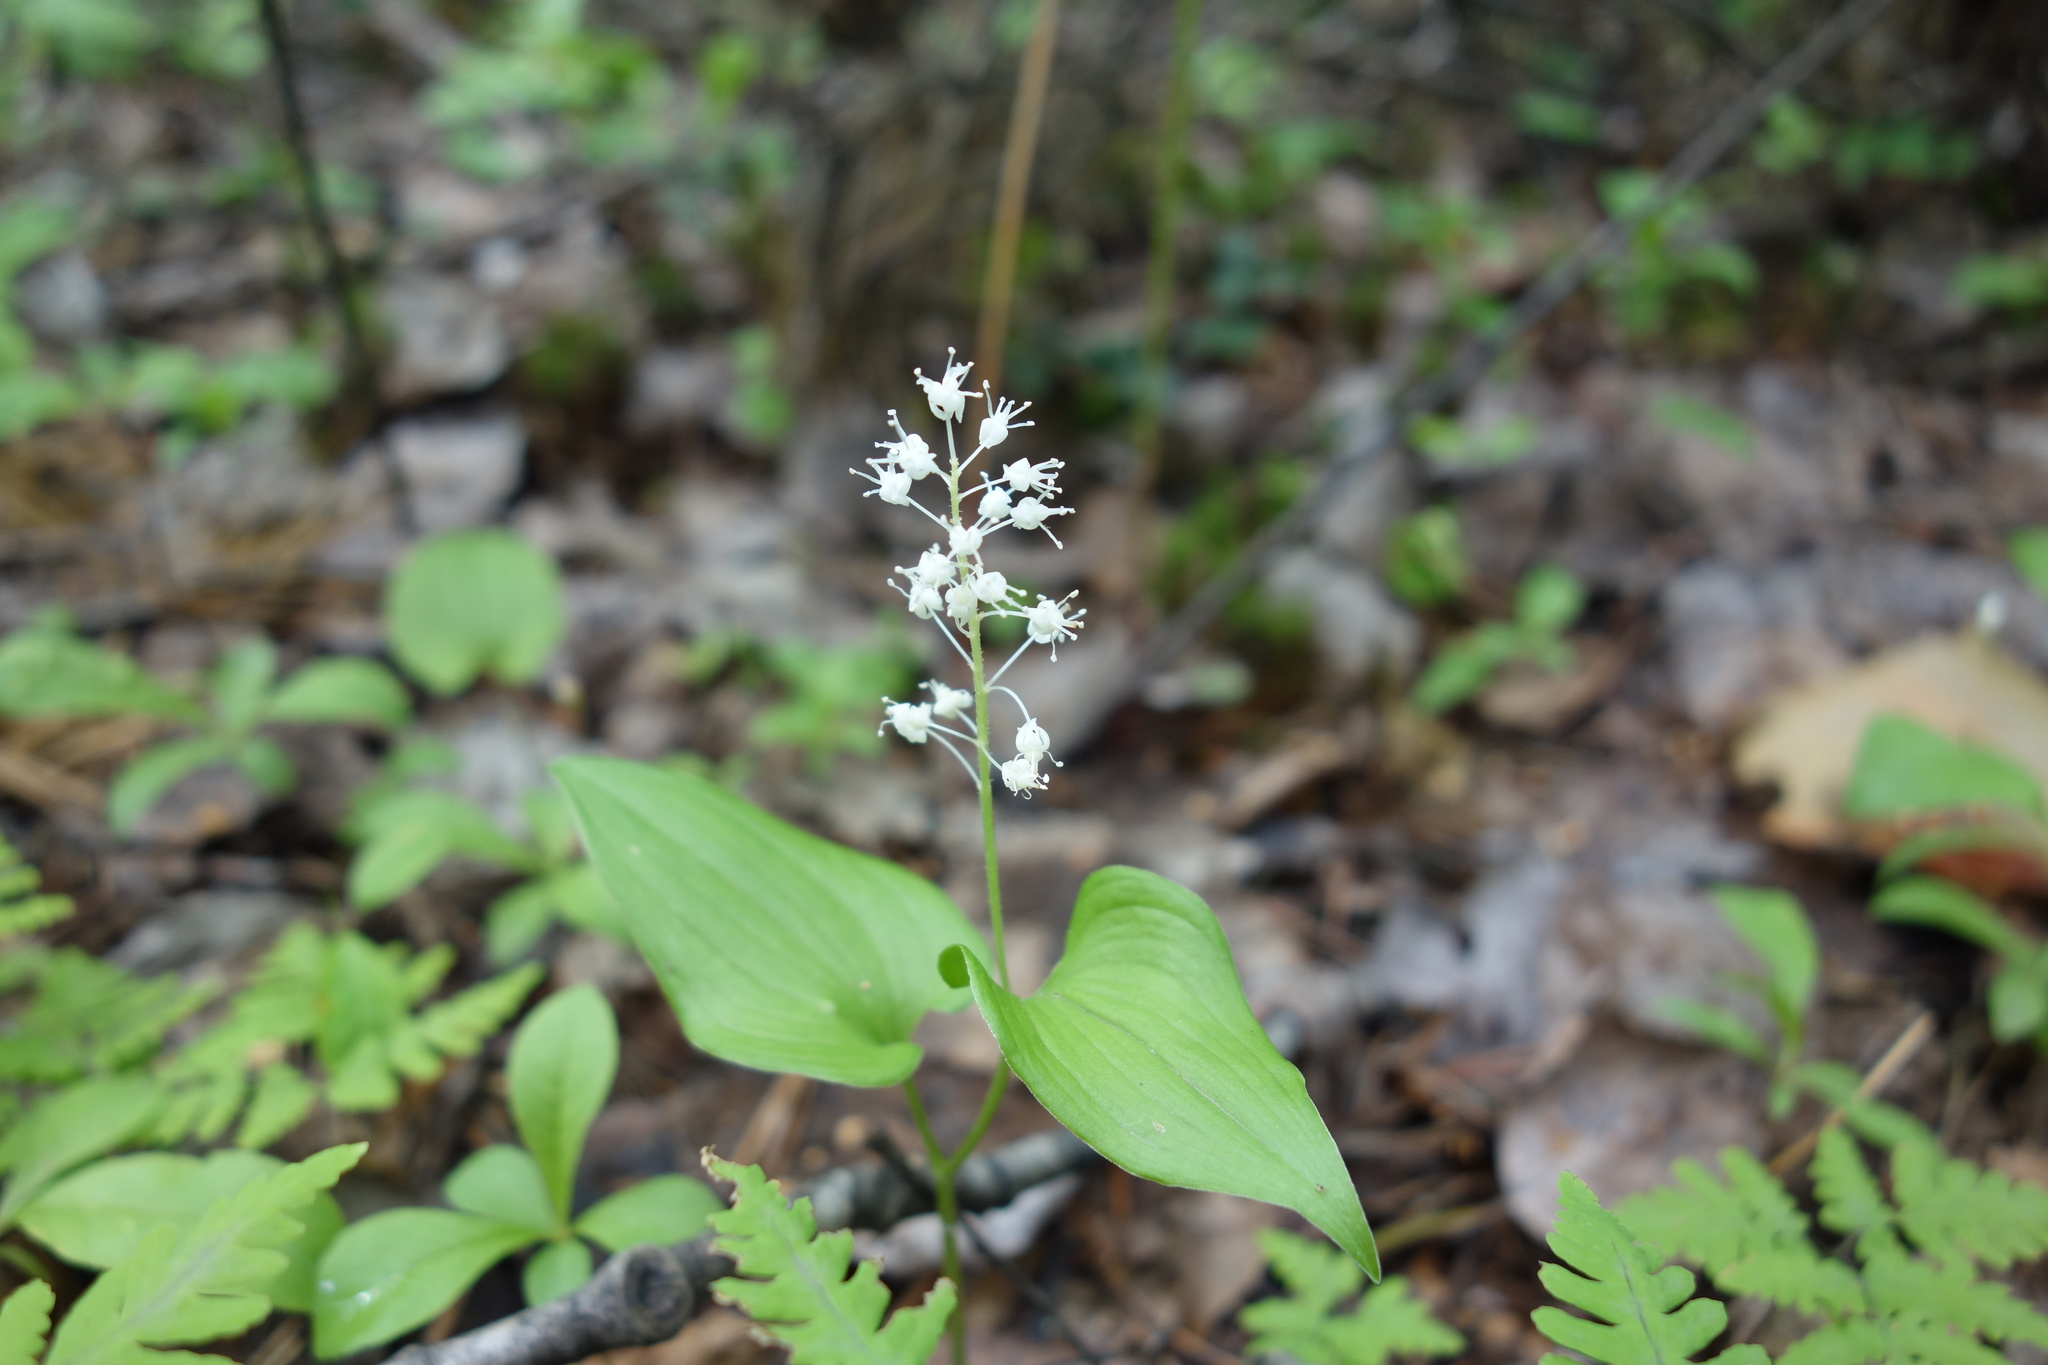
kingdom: Plantae
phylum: Tracheophyta
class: Liliopsida
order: Asparagales
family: Asparagaceae
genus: Maianthemum
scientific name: Maianthemum bifolium
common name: May lily
